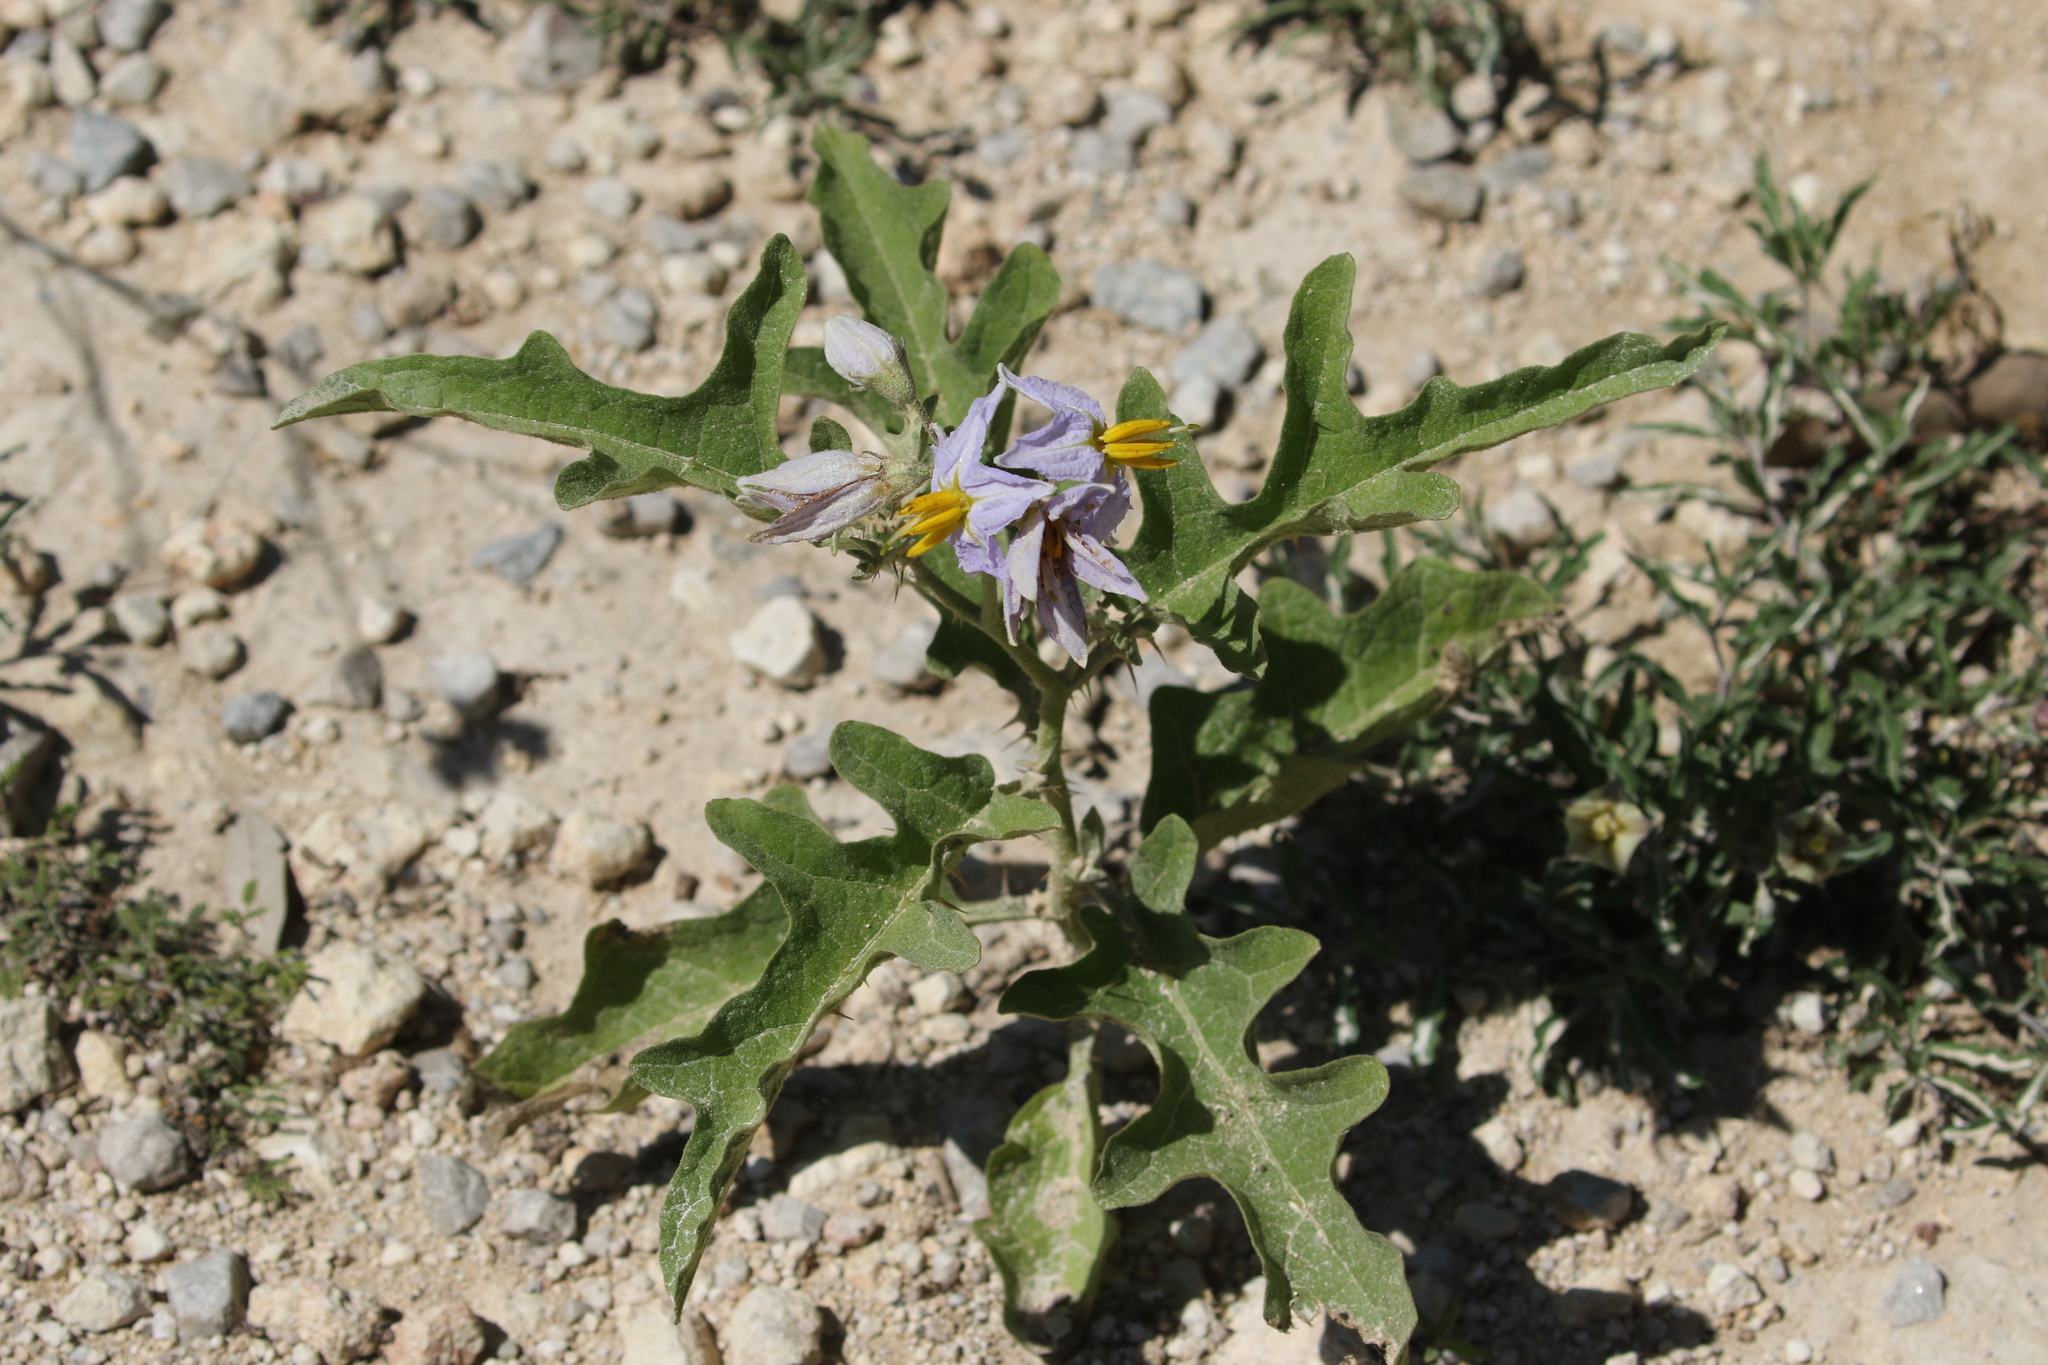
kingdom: Plantae
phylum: Tracheophyta
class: Magnoliopsida
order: Solanales
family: Solanaceae
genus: Solanum
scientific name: Solanum dimidiatum
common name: Carolina horse-nettle
